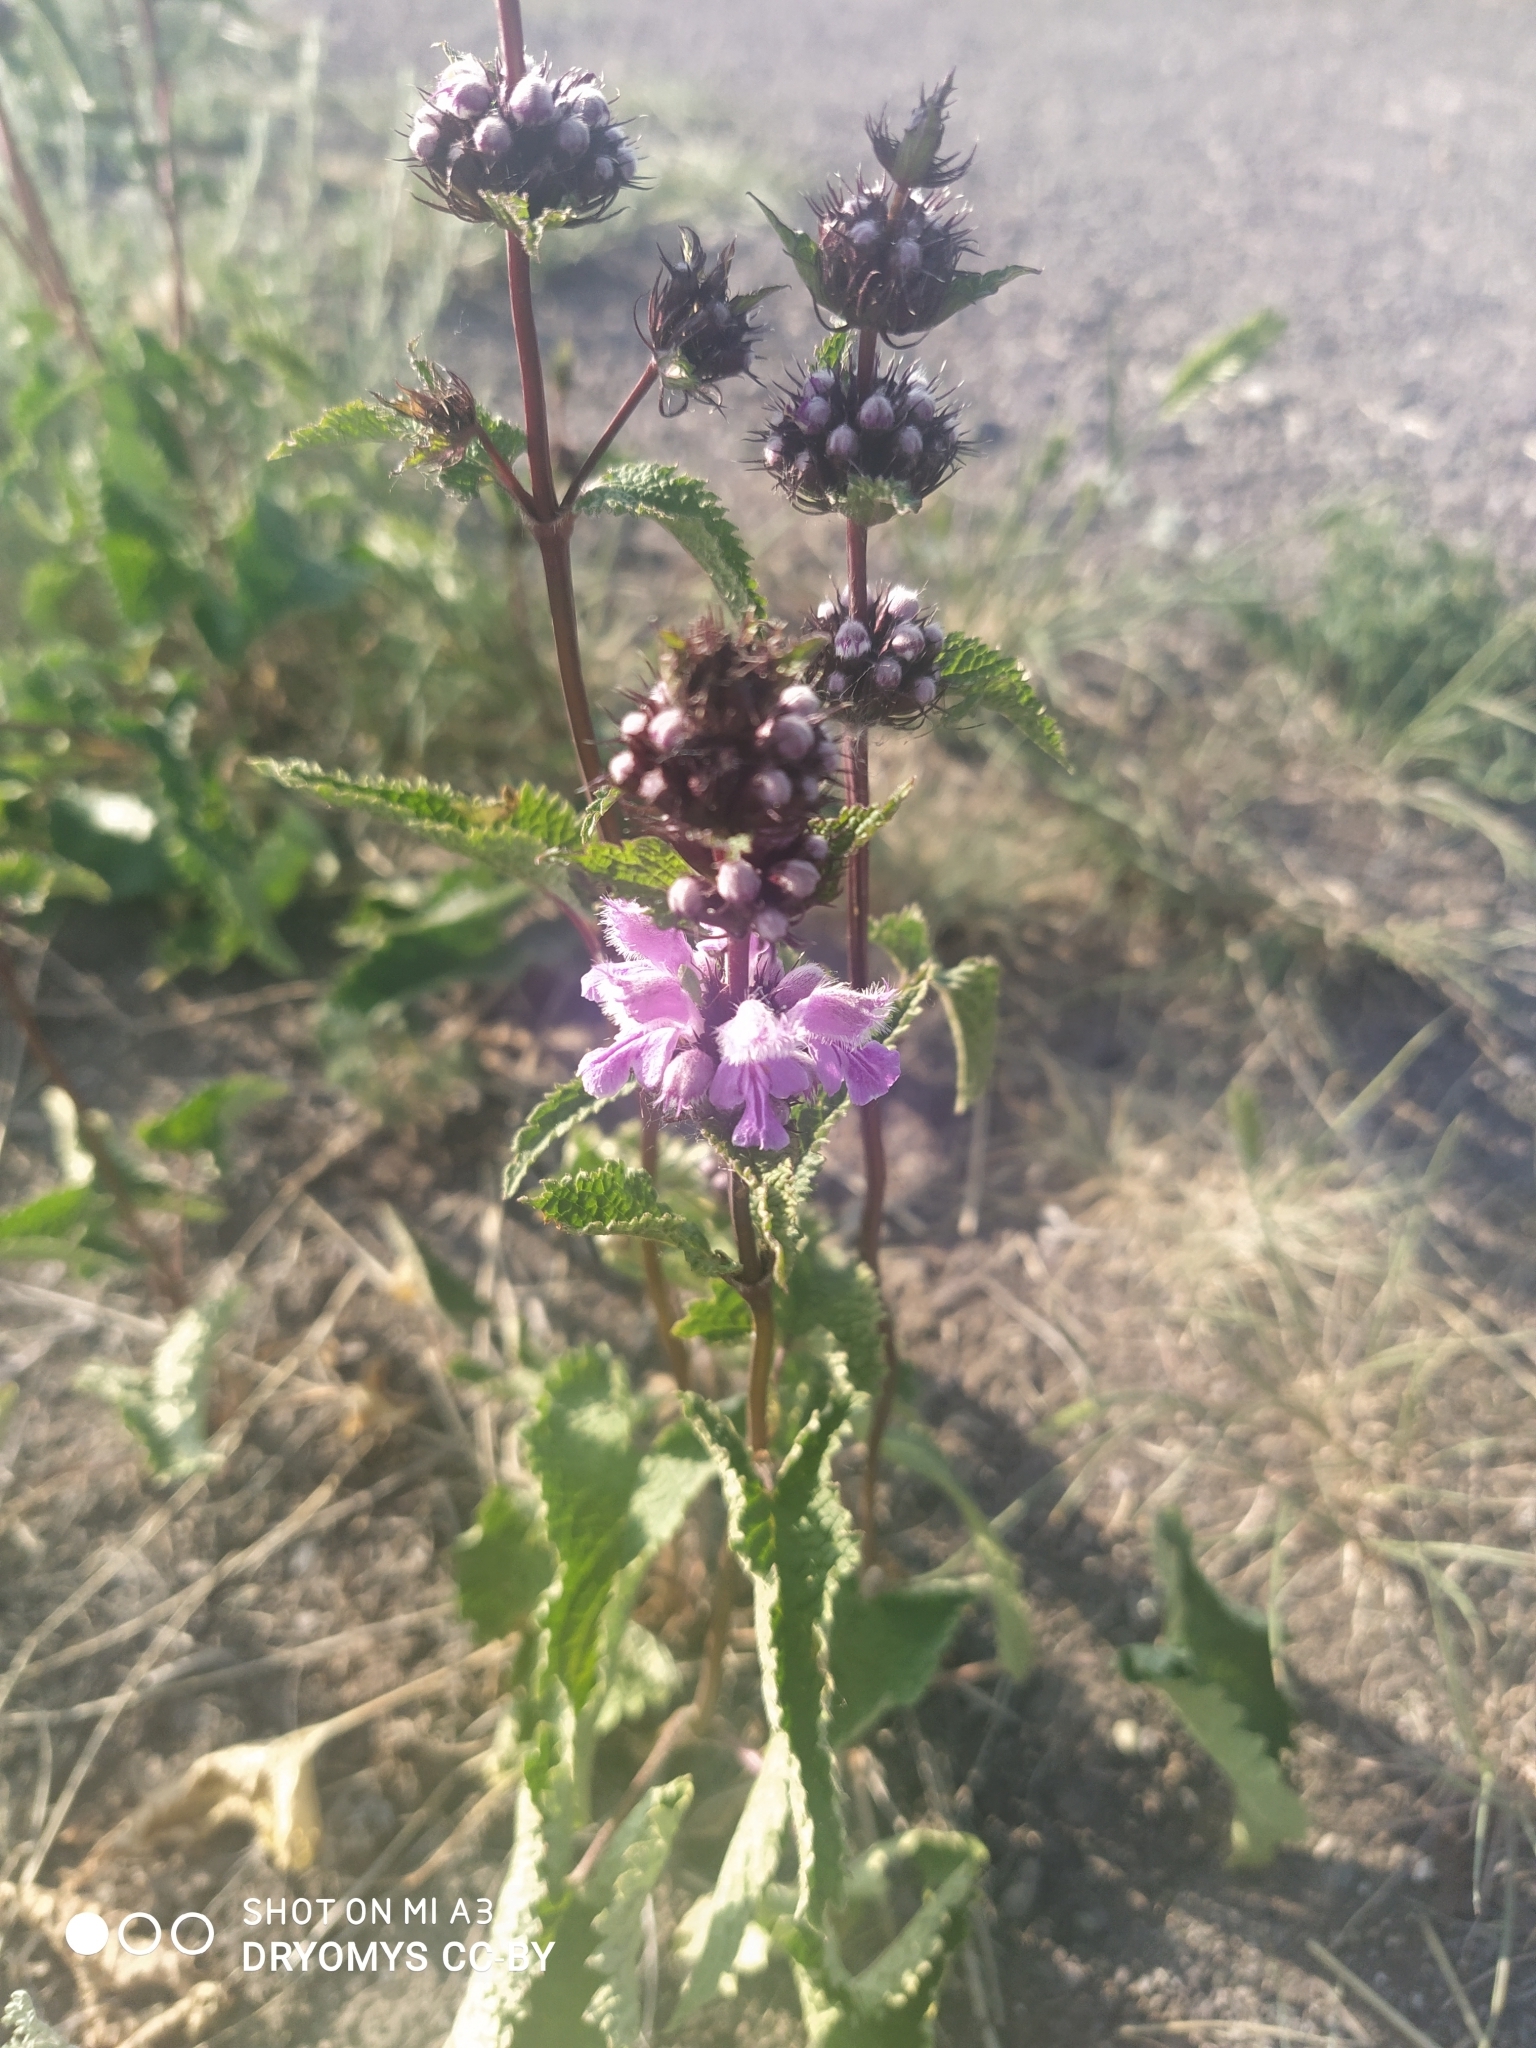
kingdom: Plantae
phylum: Tracheophyta
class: Magnoliopsida
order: Lamiales
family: Lamiaceae
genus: Phlomoides
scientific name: Phlomoides tuberosa
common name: Tuberous jerusalem sage
